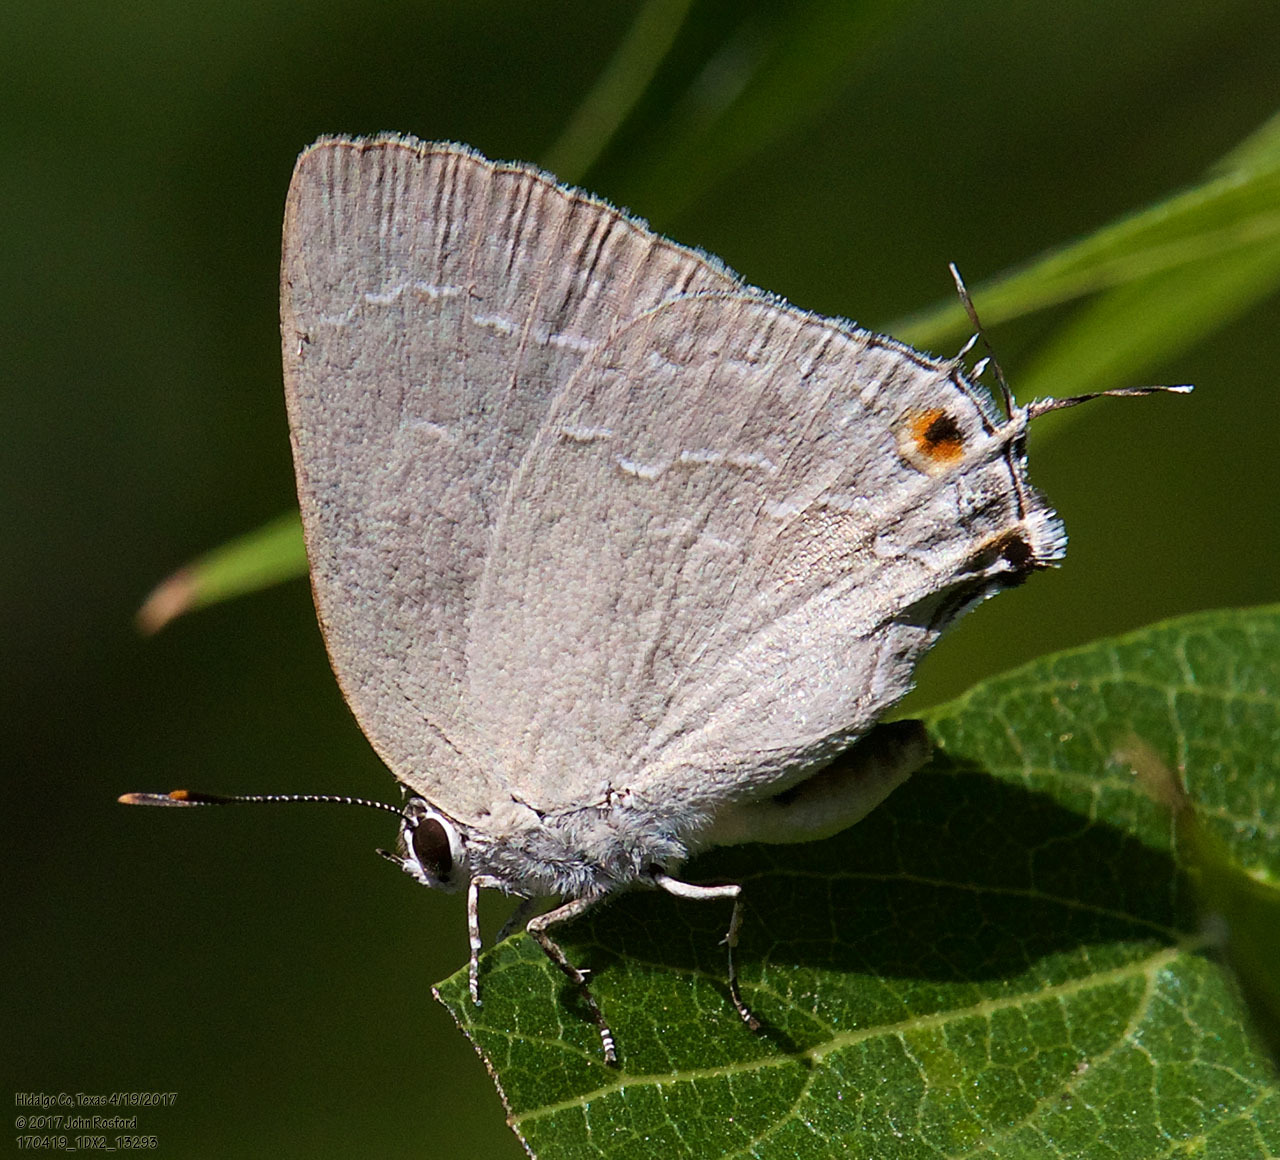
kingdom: Animalia
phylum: Arthropoda
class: Insecta
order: Lepidoptera
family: Lycaenidae
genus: Strephonota
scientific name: Strephonota tephraeus
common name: Pearly-gray hairstreak
